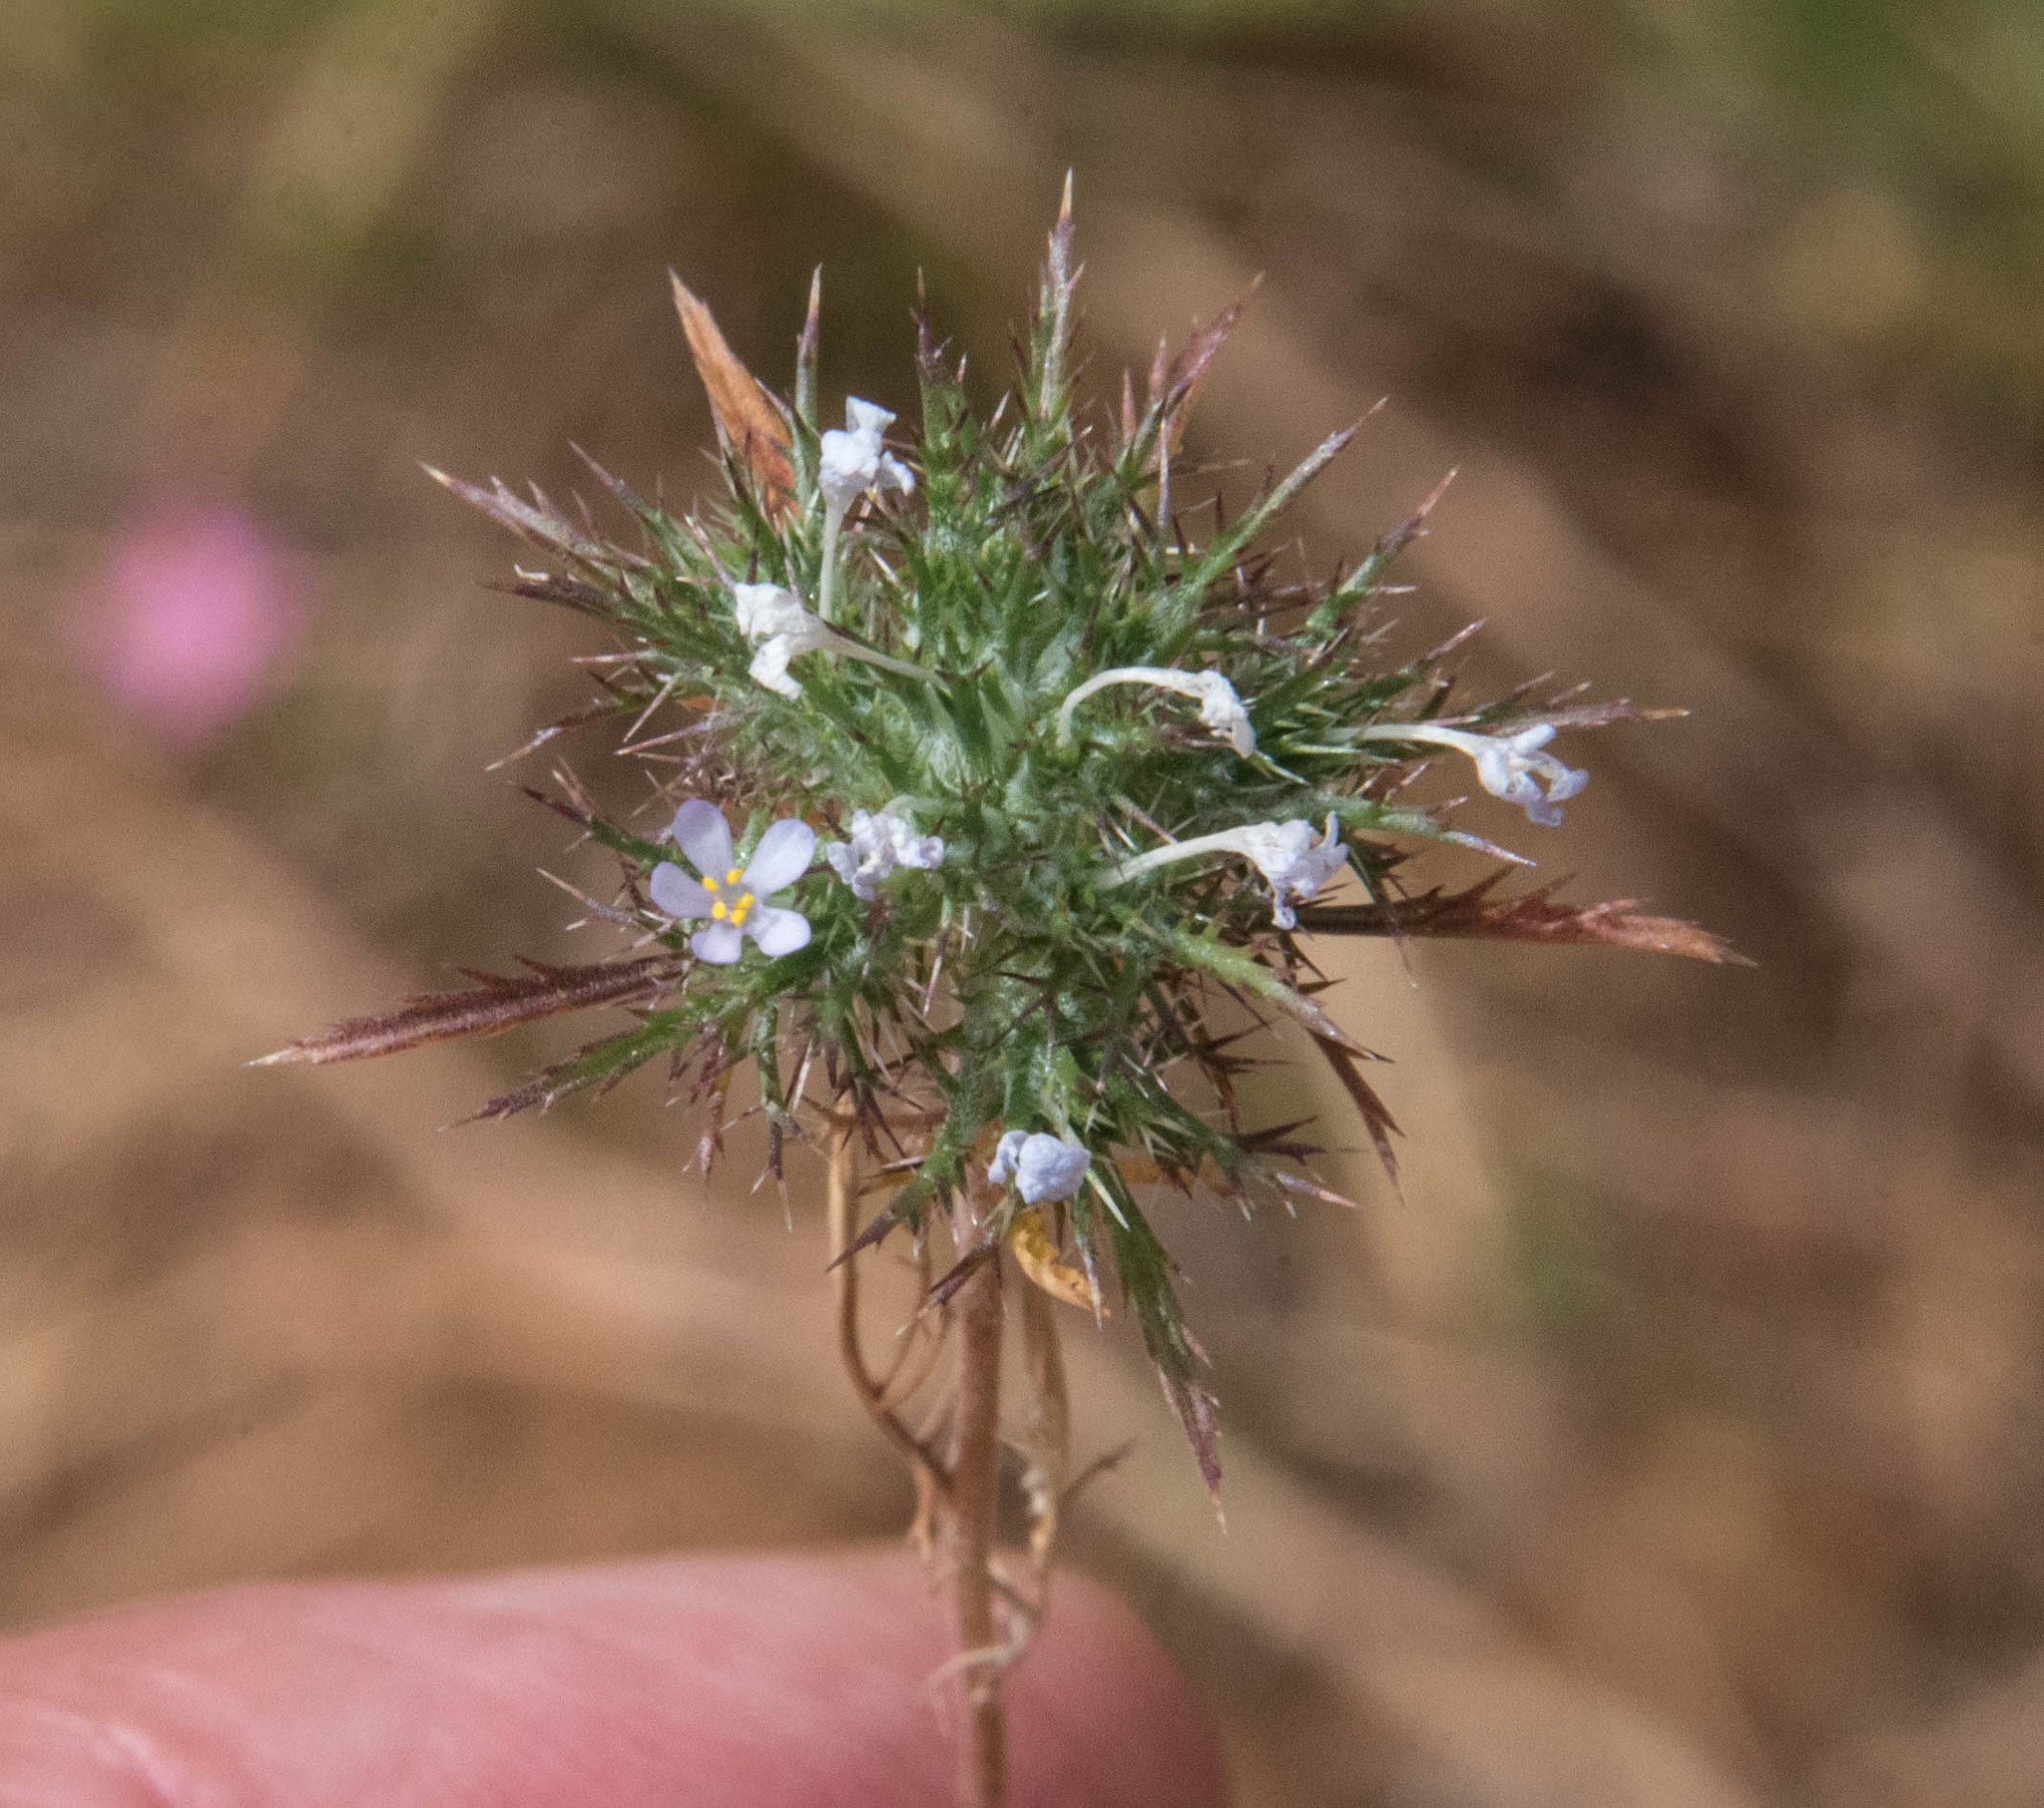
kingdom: Plantae
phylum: Tracheophyta
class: Magnoliopsida
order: Ericales
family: Polemoniaceae
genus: Navarretia
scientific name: Navarretia tagetina
